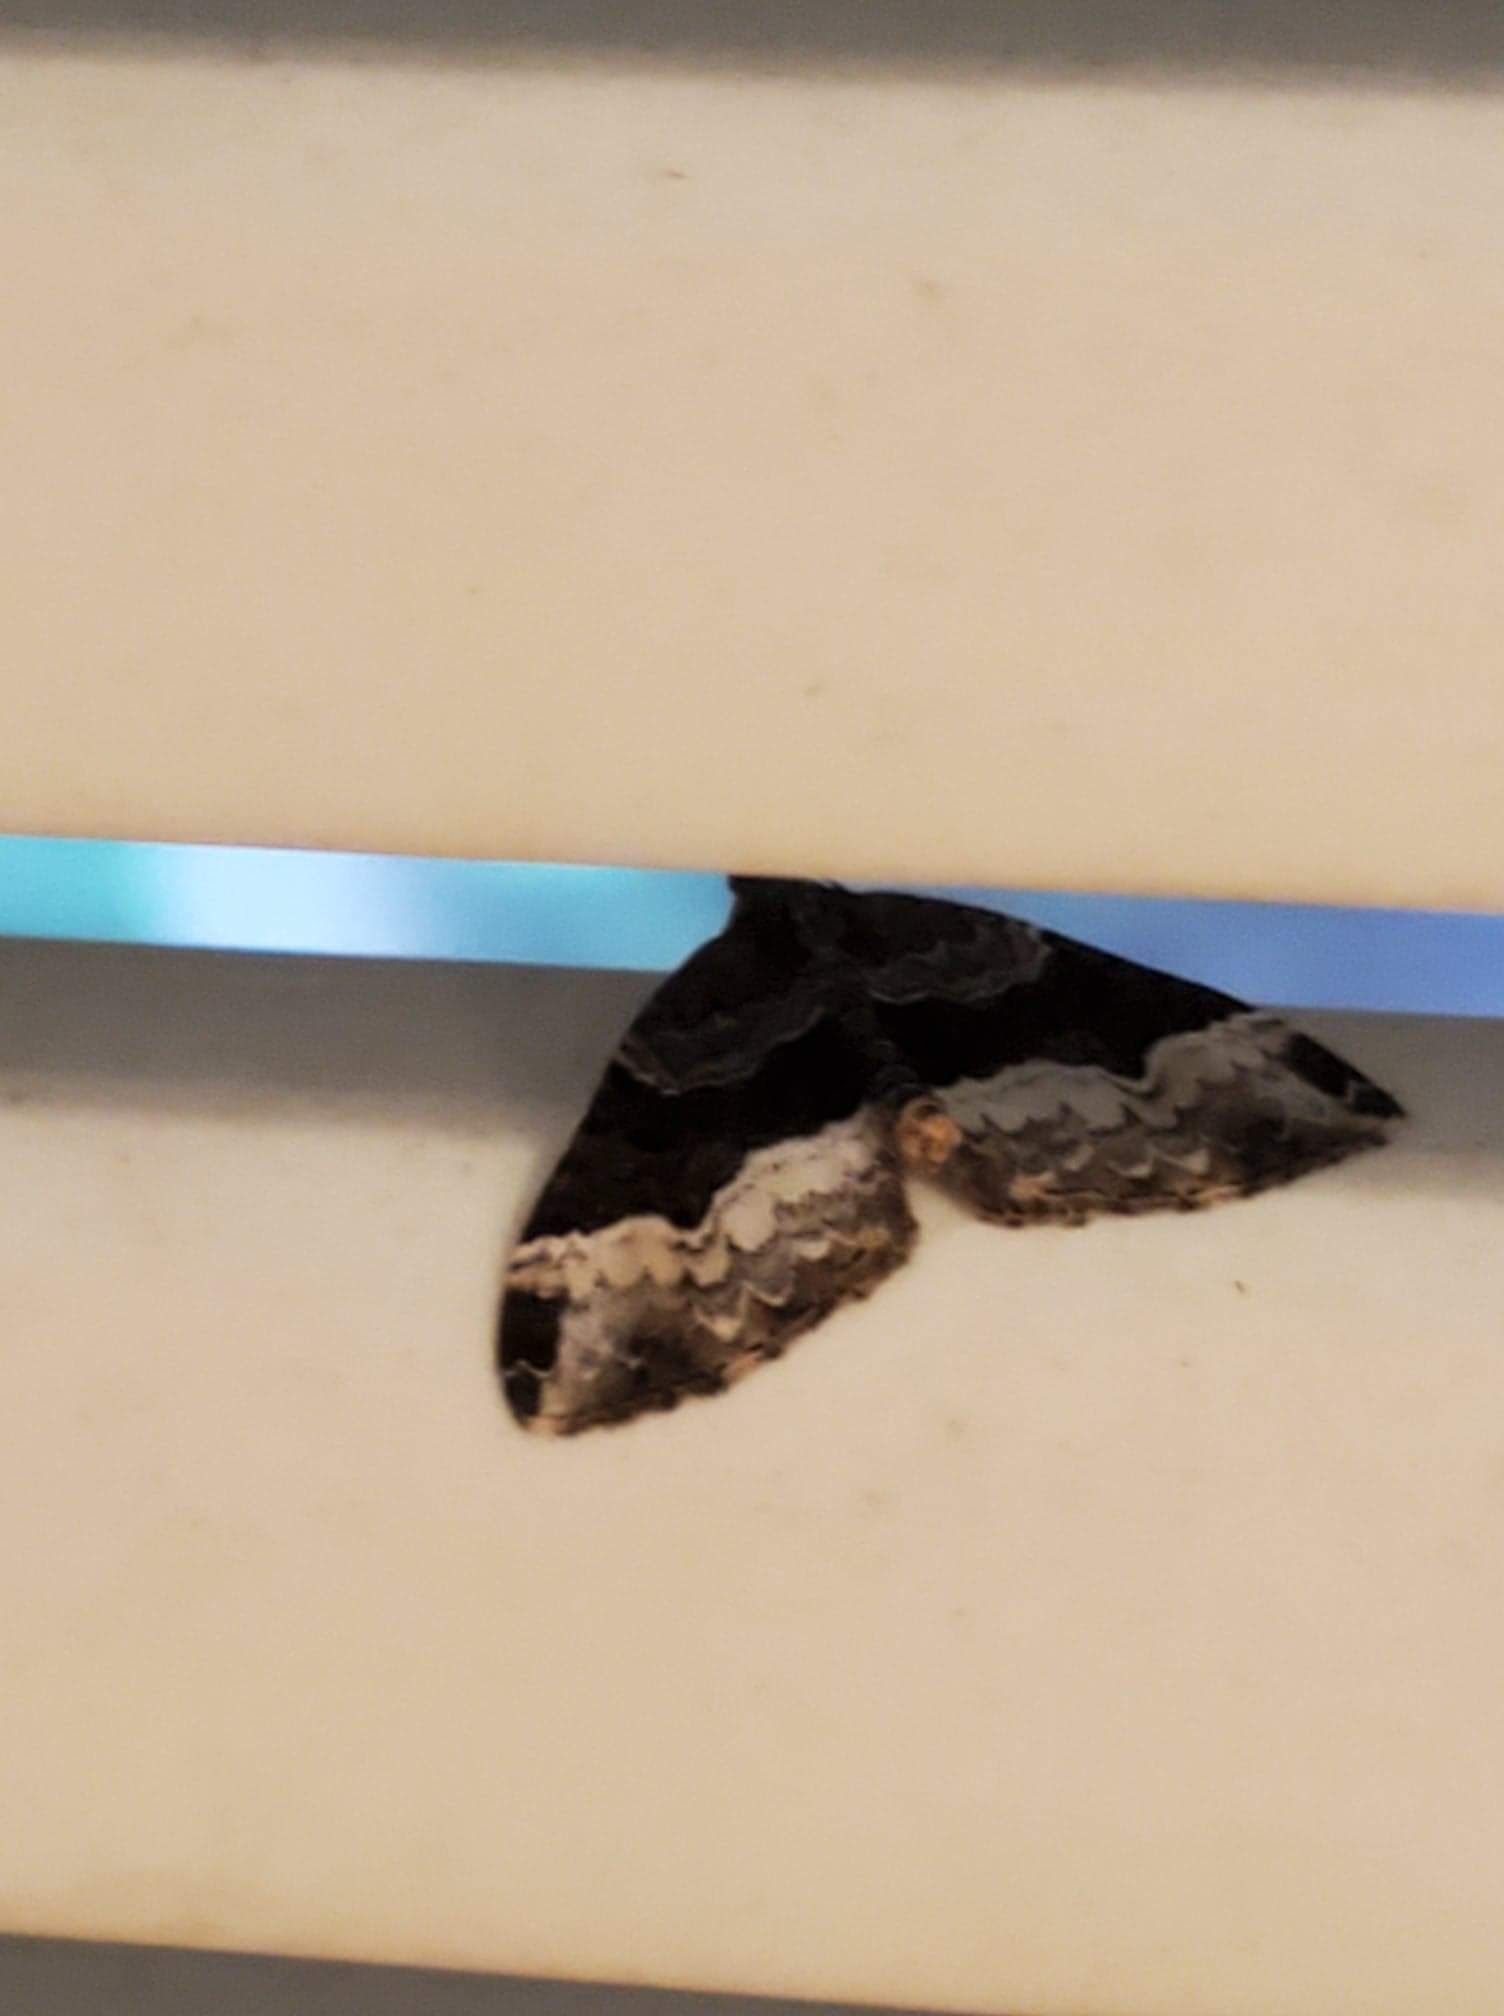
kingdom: Animalia
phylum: Arthropoda
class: Insecta
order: Lepidoptera
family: Geometridae
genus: Euphyia
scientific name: Euphyia intermediata
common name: Sharp-angled carpet
